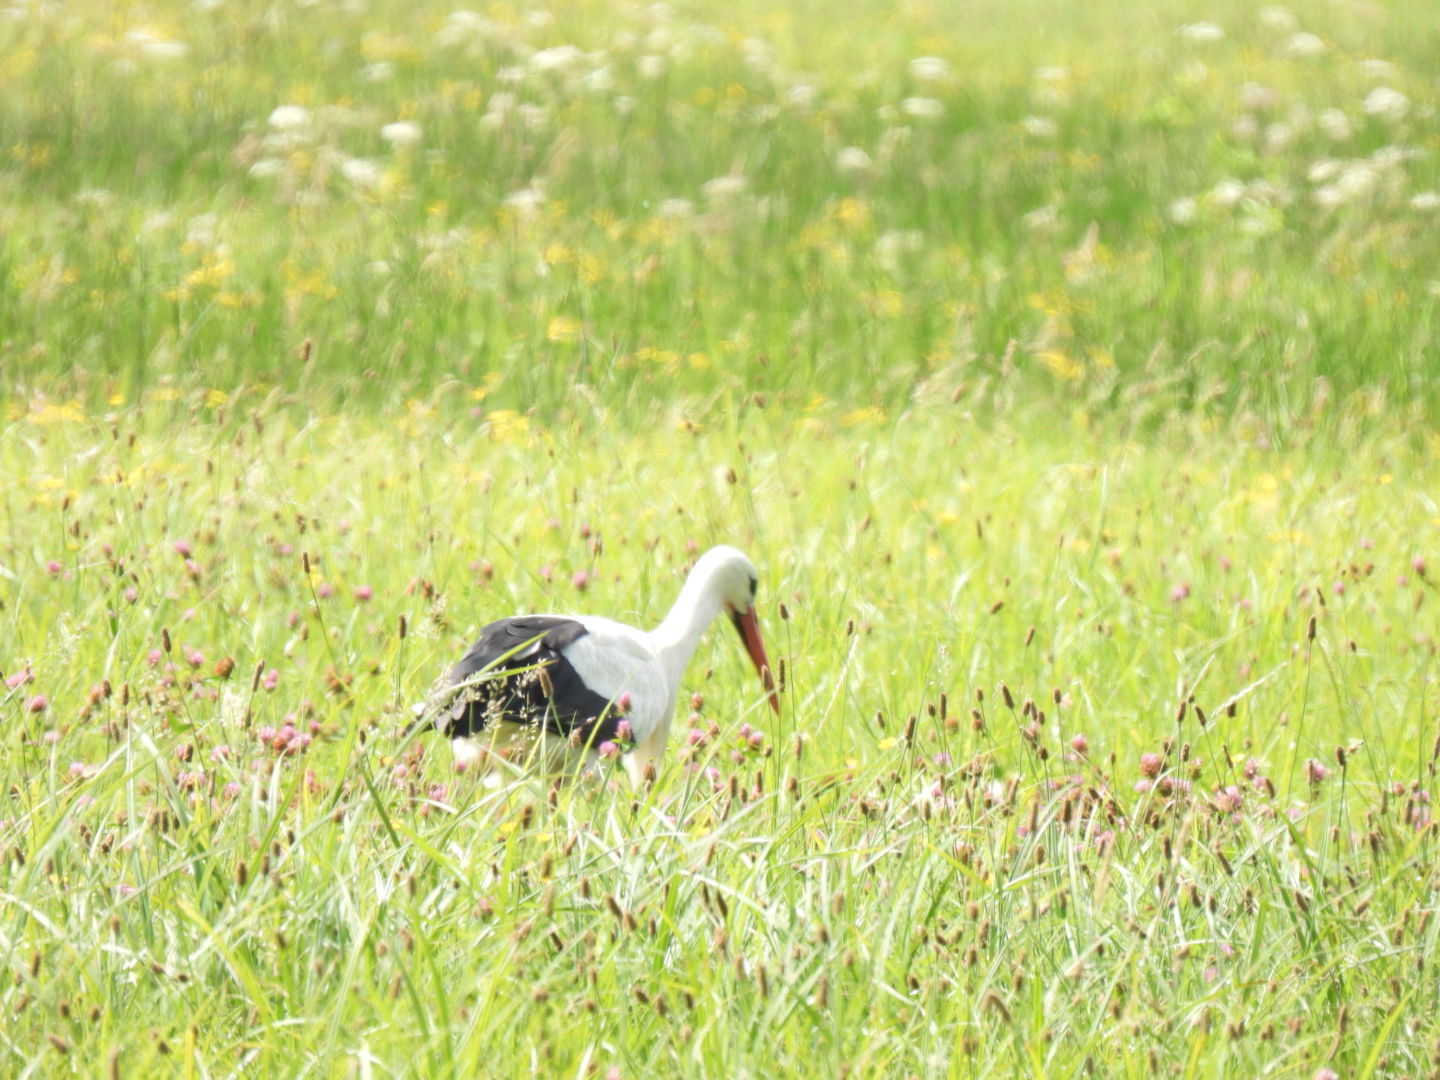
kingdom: Animalia
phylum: Chordata
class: Aves
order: Ciconiiformes
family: Ciconiidae
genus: Ciconia
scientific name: Ciconia ciconia
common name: White stork
